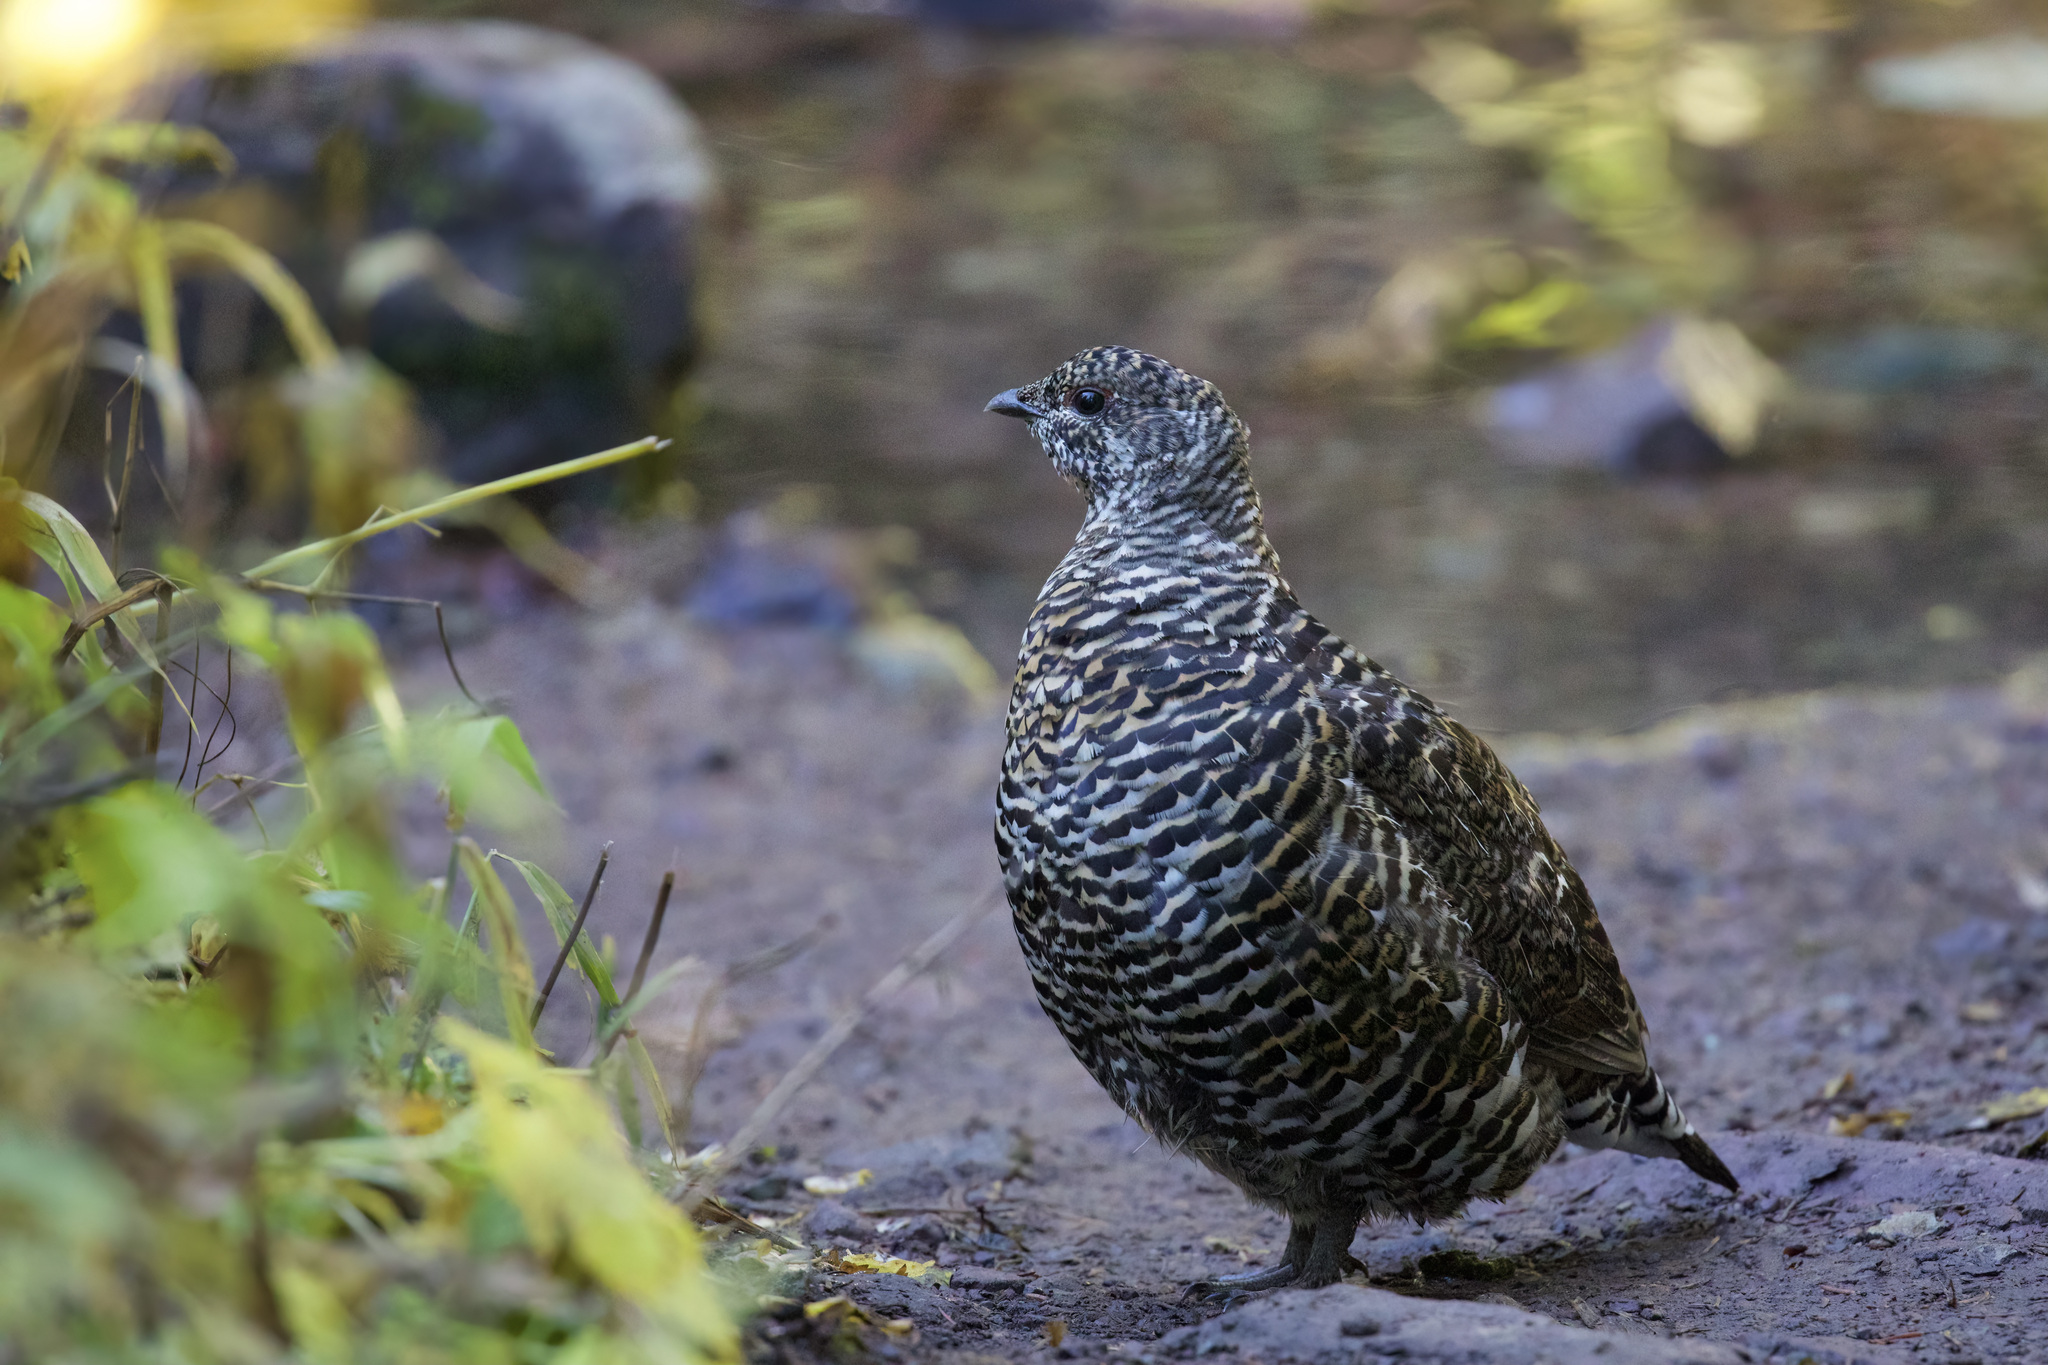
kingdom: Animalia
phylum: Chordata
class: Aves
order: Galliformes
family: Phasianidae
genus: Canachites
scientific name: Canachites canadensis
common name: Spruce grouse
